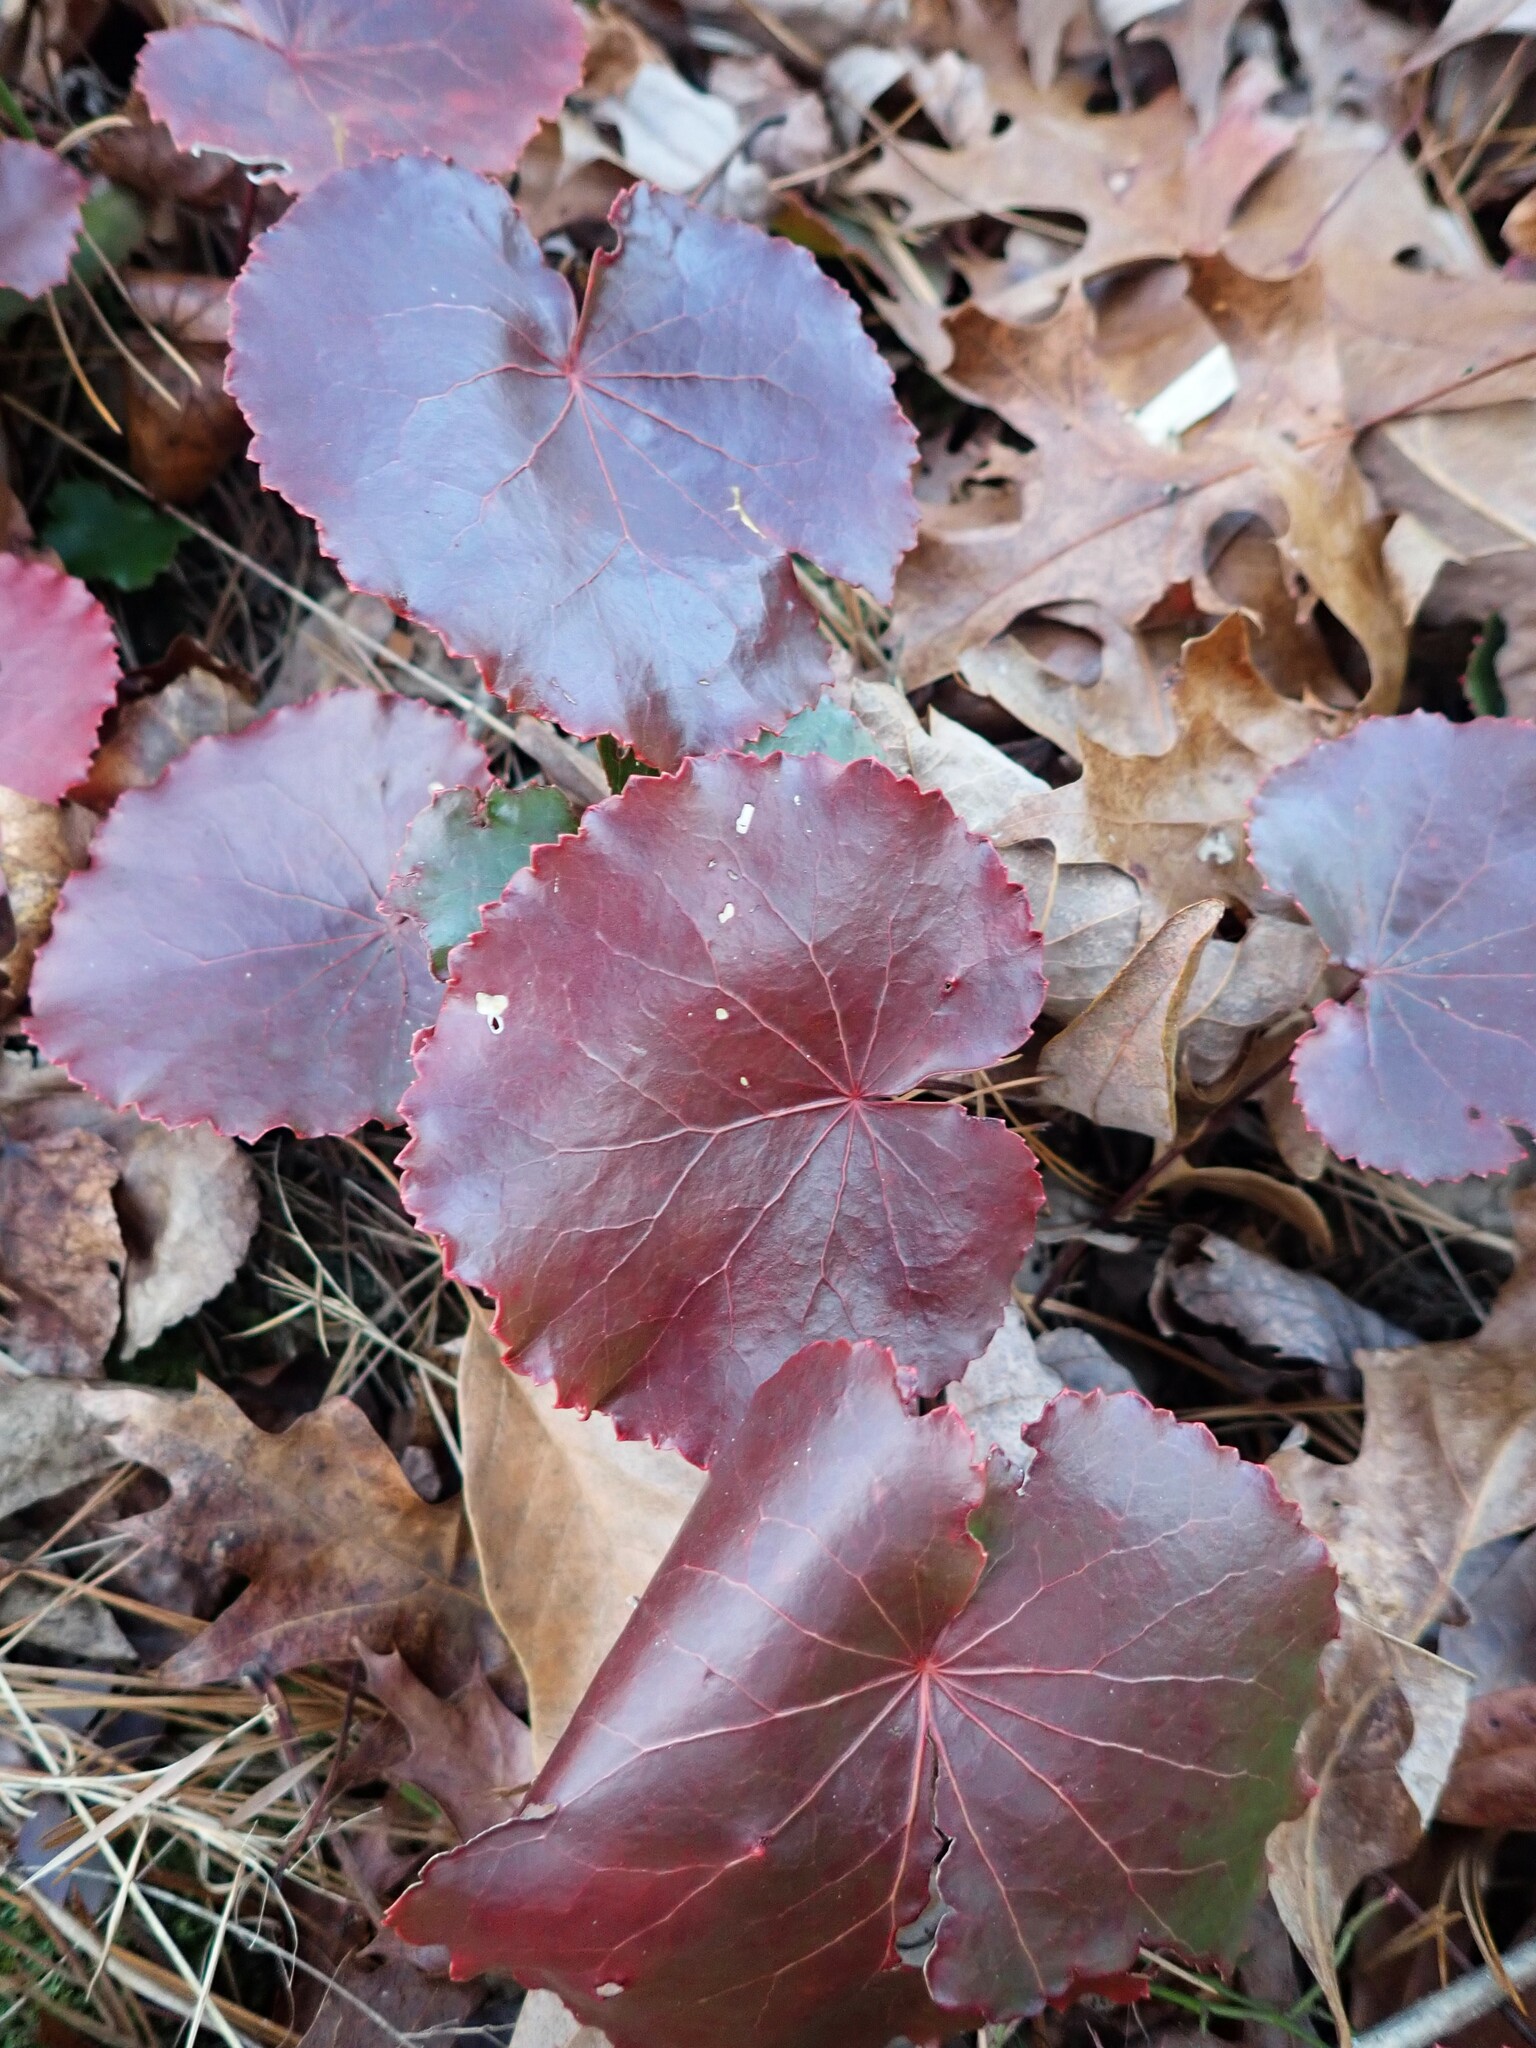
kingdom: Plantae
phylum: Tracheophyta
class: Magnoliopsida
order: Ericales
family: Diapensiaceae
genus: Galax
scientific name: Galax urceolata
